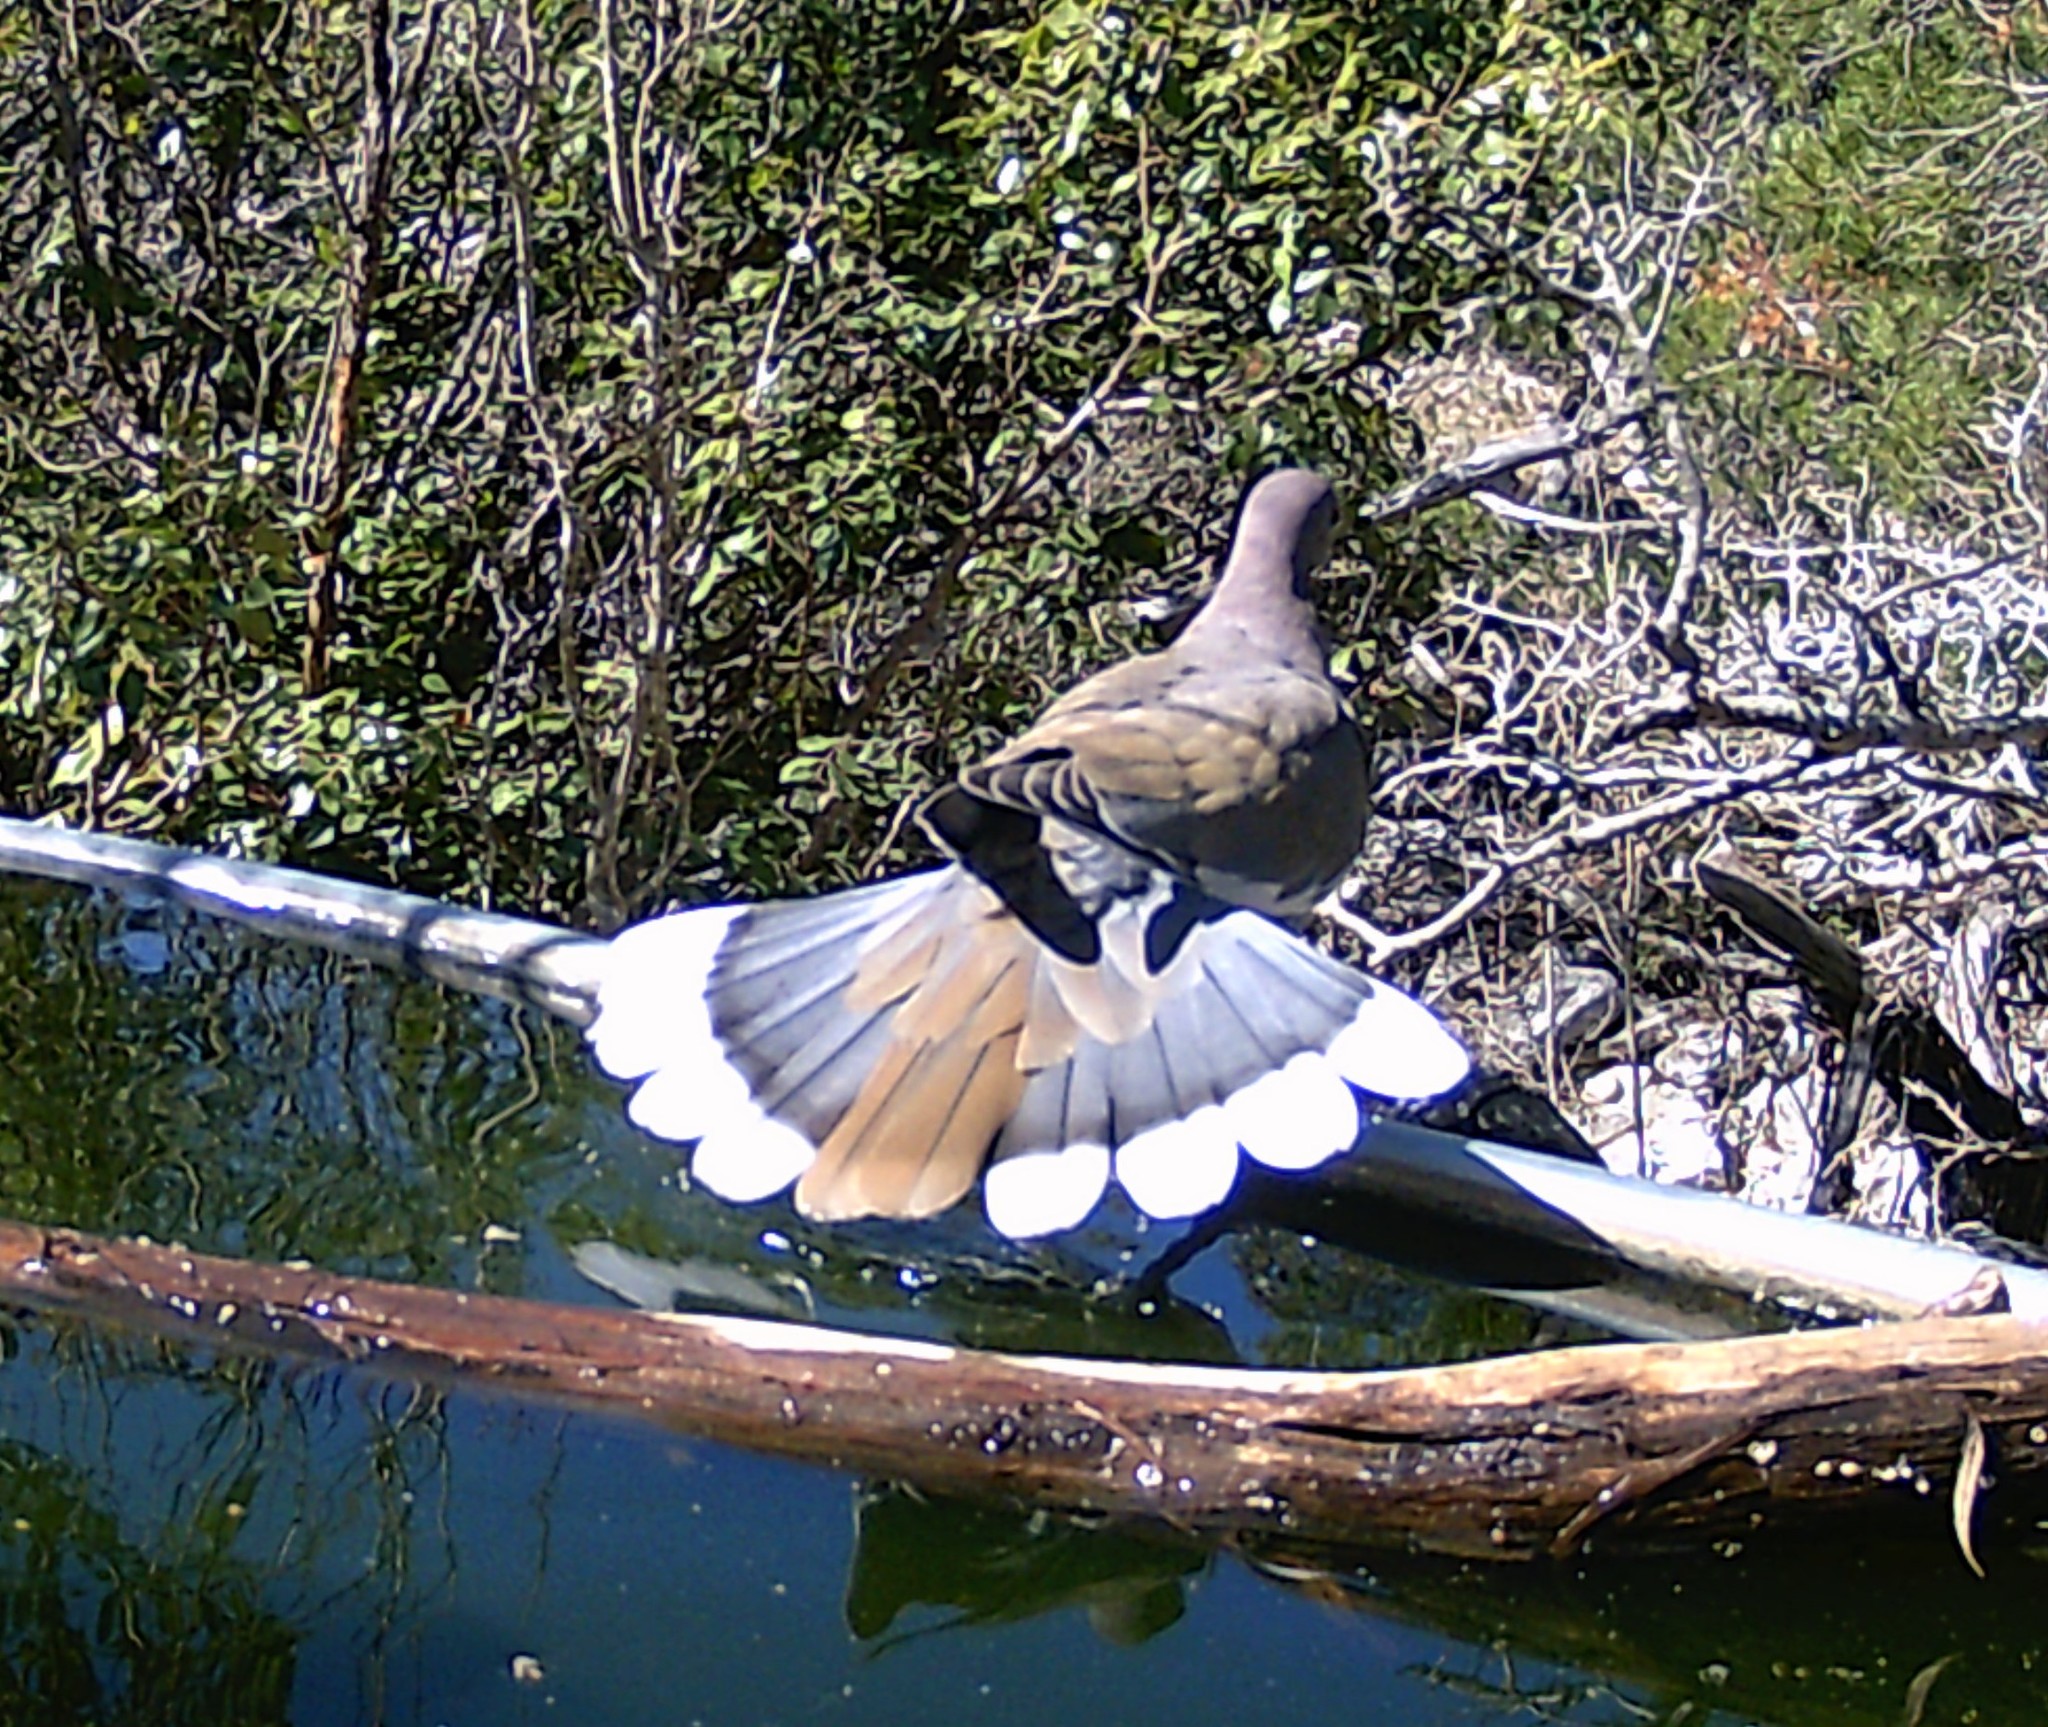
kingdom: Animalia
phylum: Chordata
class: Aves
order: Columbiformes
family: Columbidae
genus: Zenaida
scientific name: Zenaida asiatica
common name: White-winged dove
